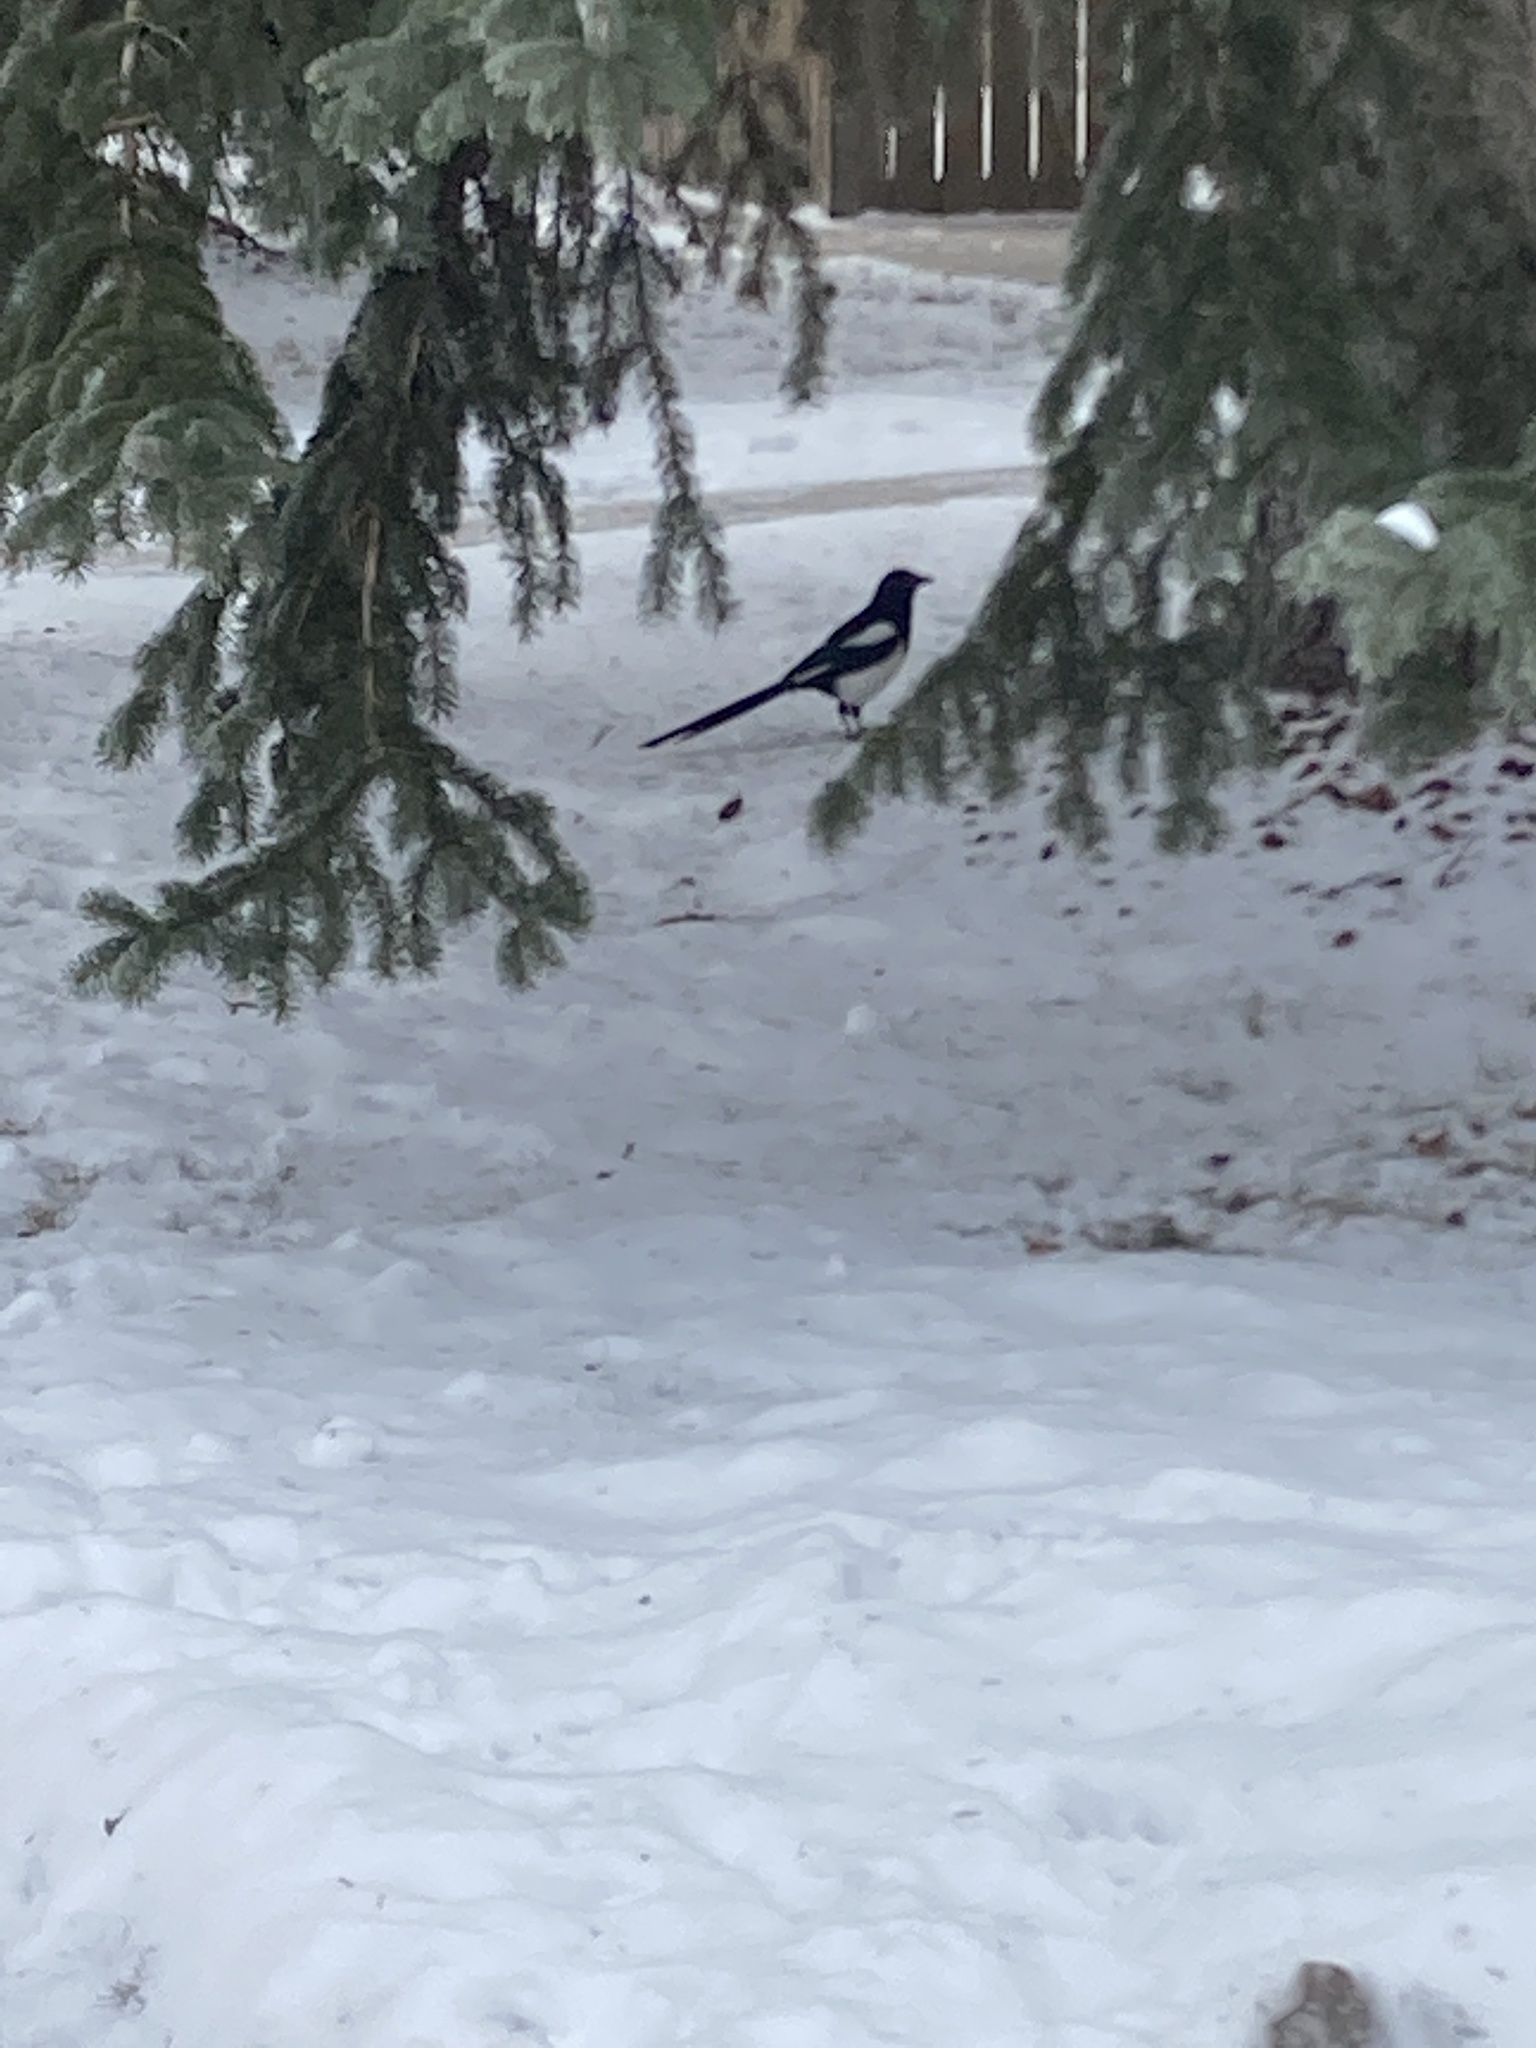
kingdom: Animalia
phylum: Chordata
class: Aves
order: Passeriformes
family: Corvidae
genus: Pica
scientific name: Pica hudsonia
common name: Black-billed magpie
